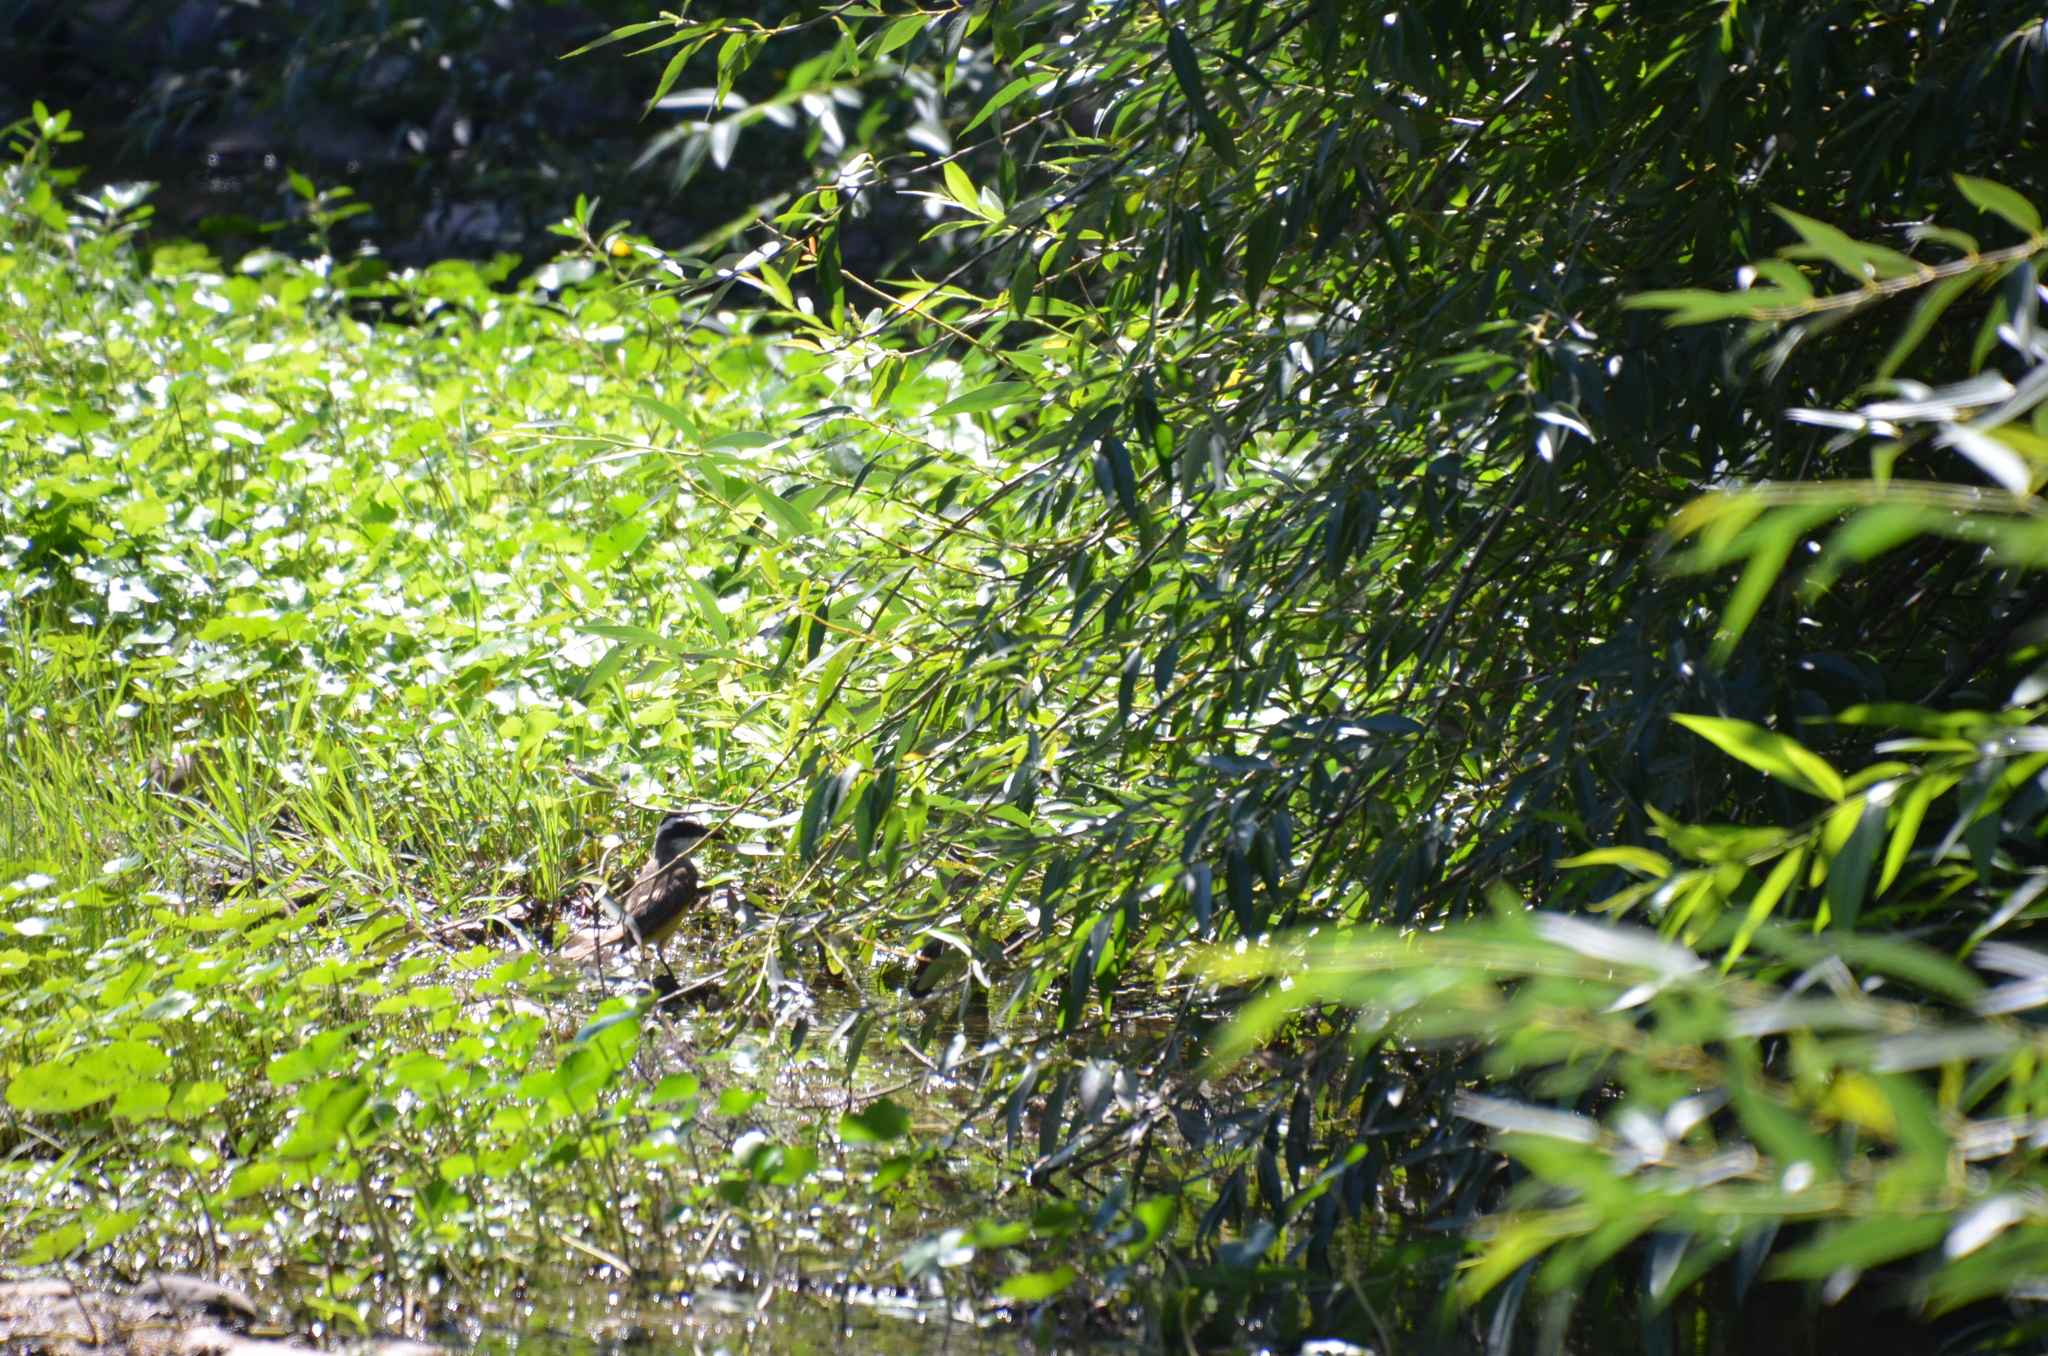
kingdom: Animalia
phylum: Chordata
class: Aves
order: Passeriformes
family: Tyrannidae
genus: Pitangus
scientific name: Pitangus sulphuratus
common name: Great kiskadee
